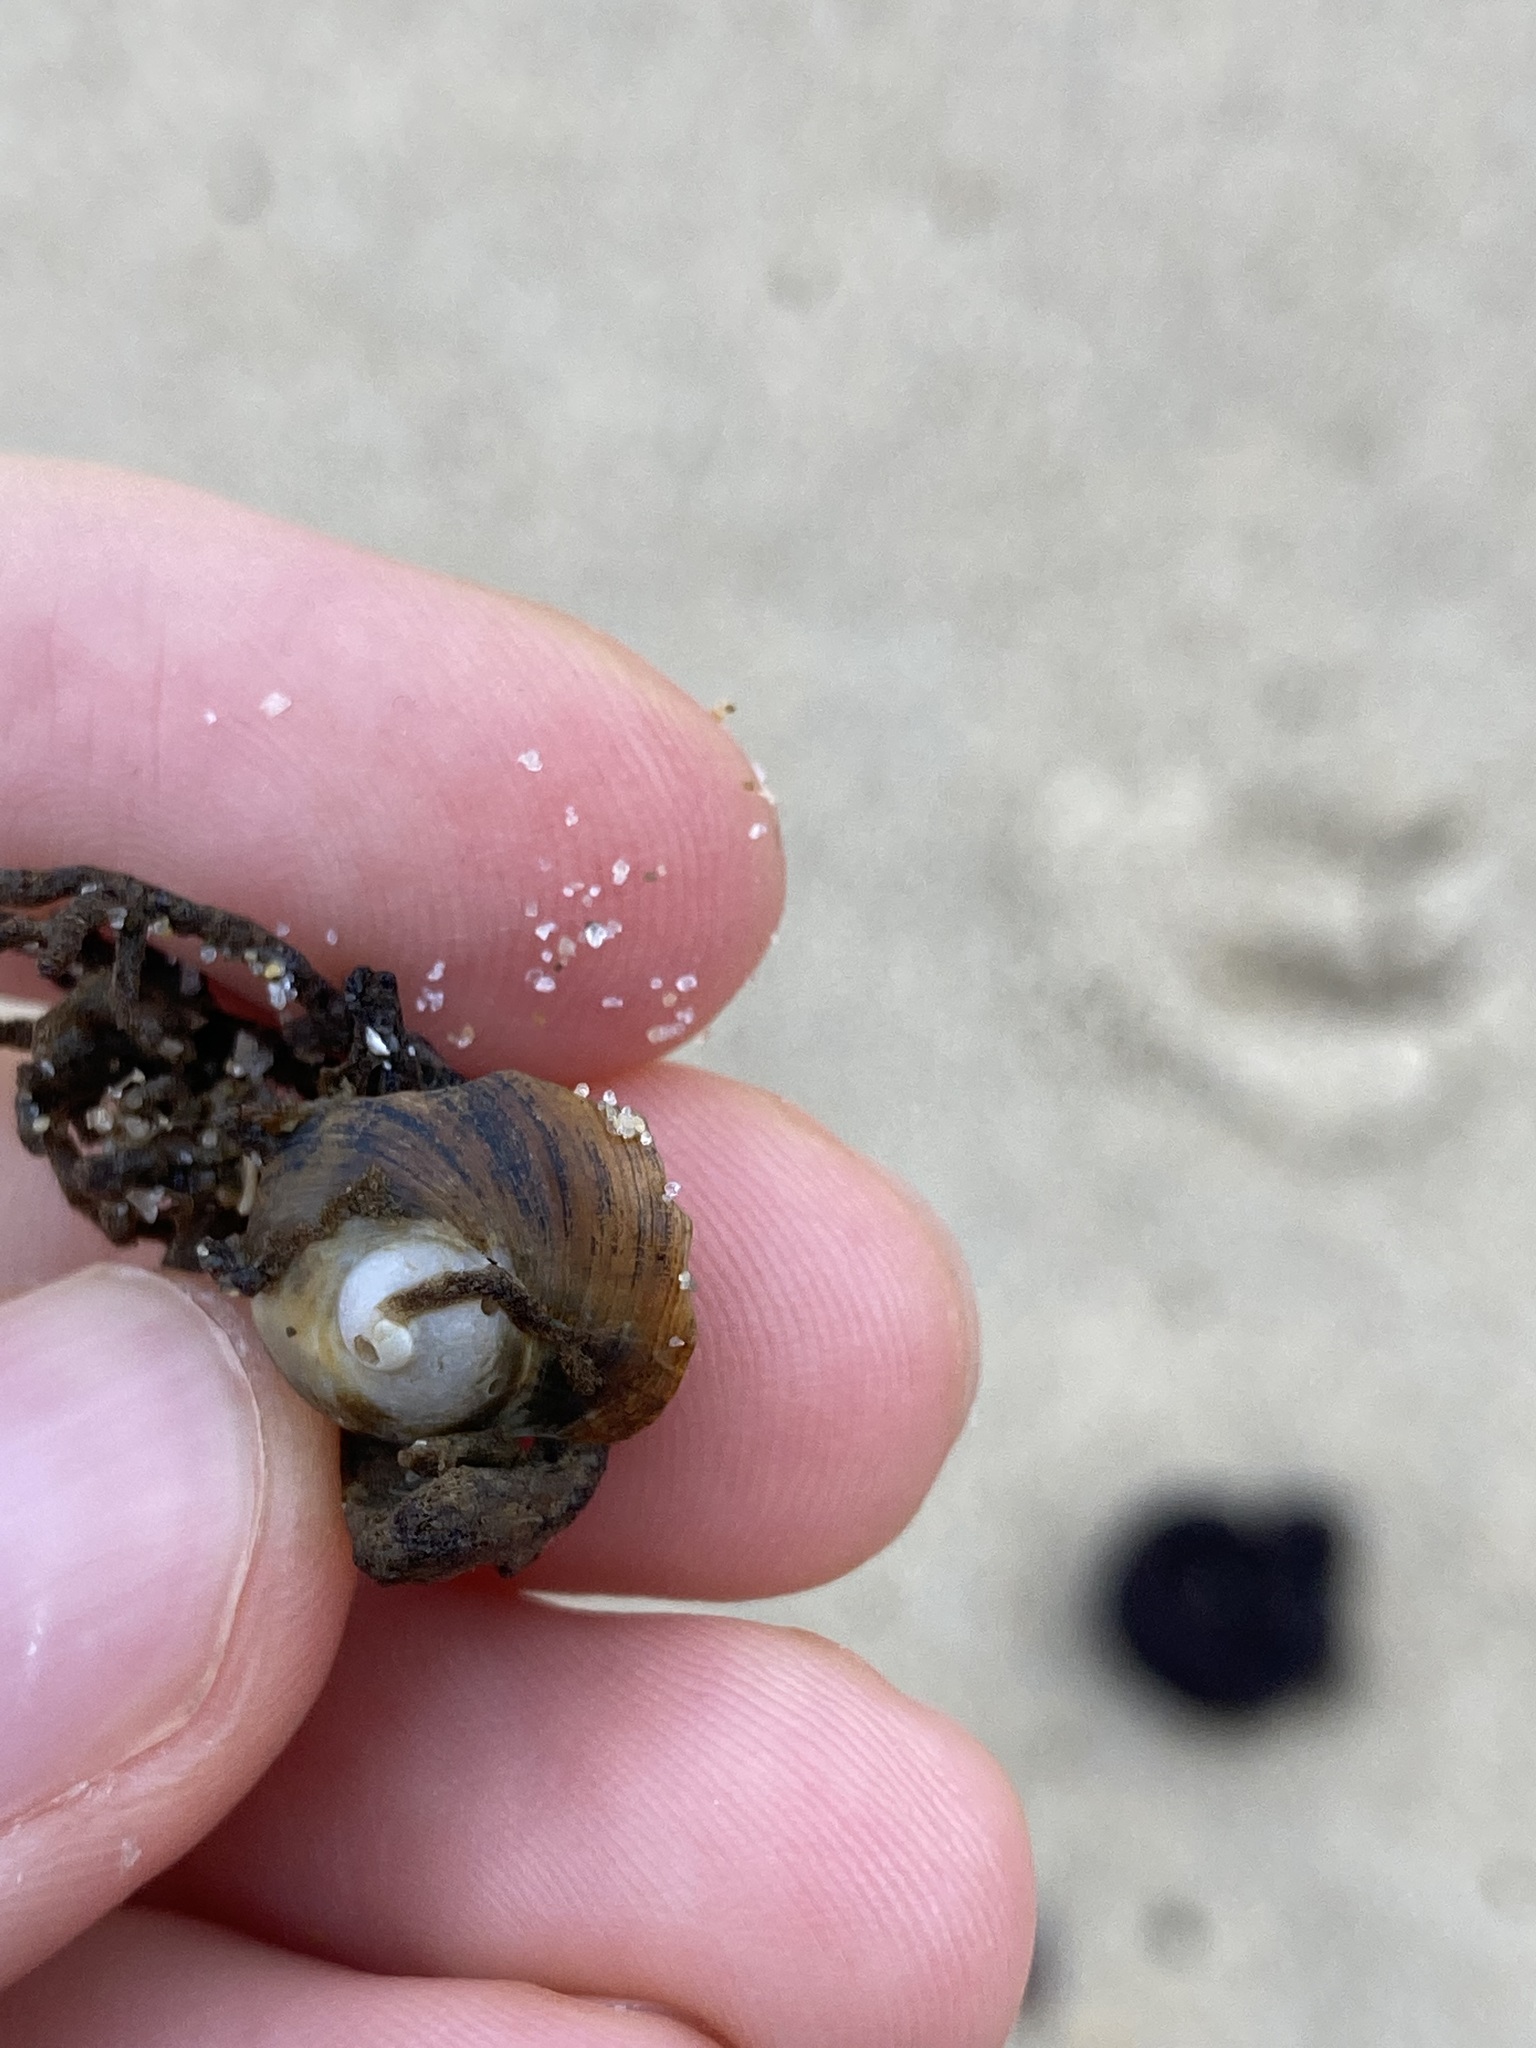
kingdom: Animalia
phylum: Mollusca
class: Gastropoda
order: Littorinimorpha
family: Calyptraeidae
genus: Sigapatella
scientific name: Sigapatella calyptraeformis
